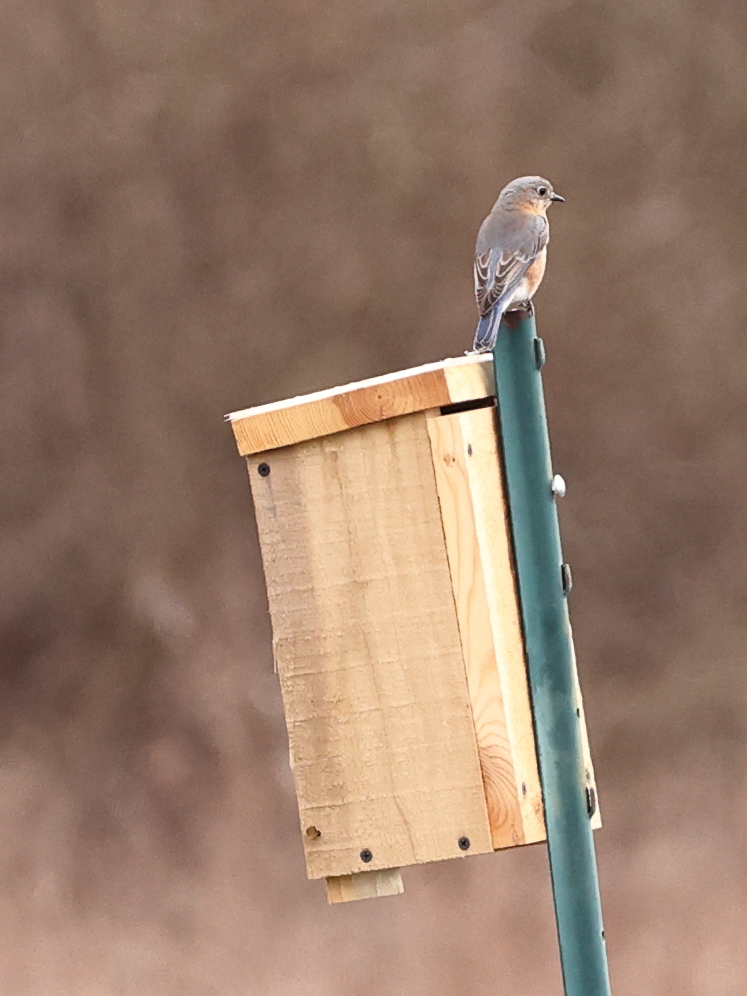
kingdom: Animalia
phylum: Chordata
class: Aves
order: Passeriformes
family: Turdidae
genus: Sialia
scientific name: Sialia sialis
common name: Eastern bluebird
